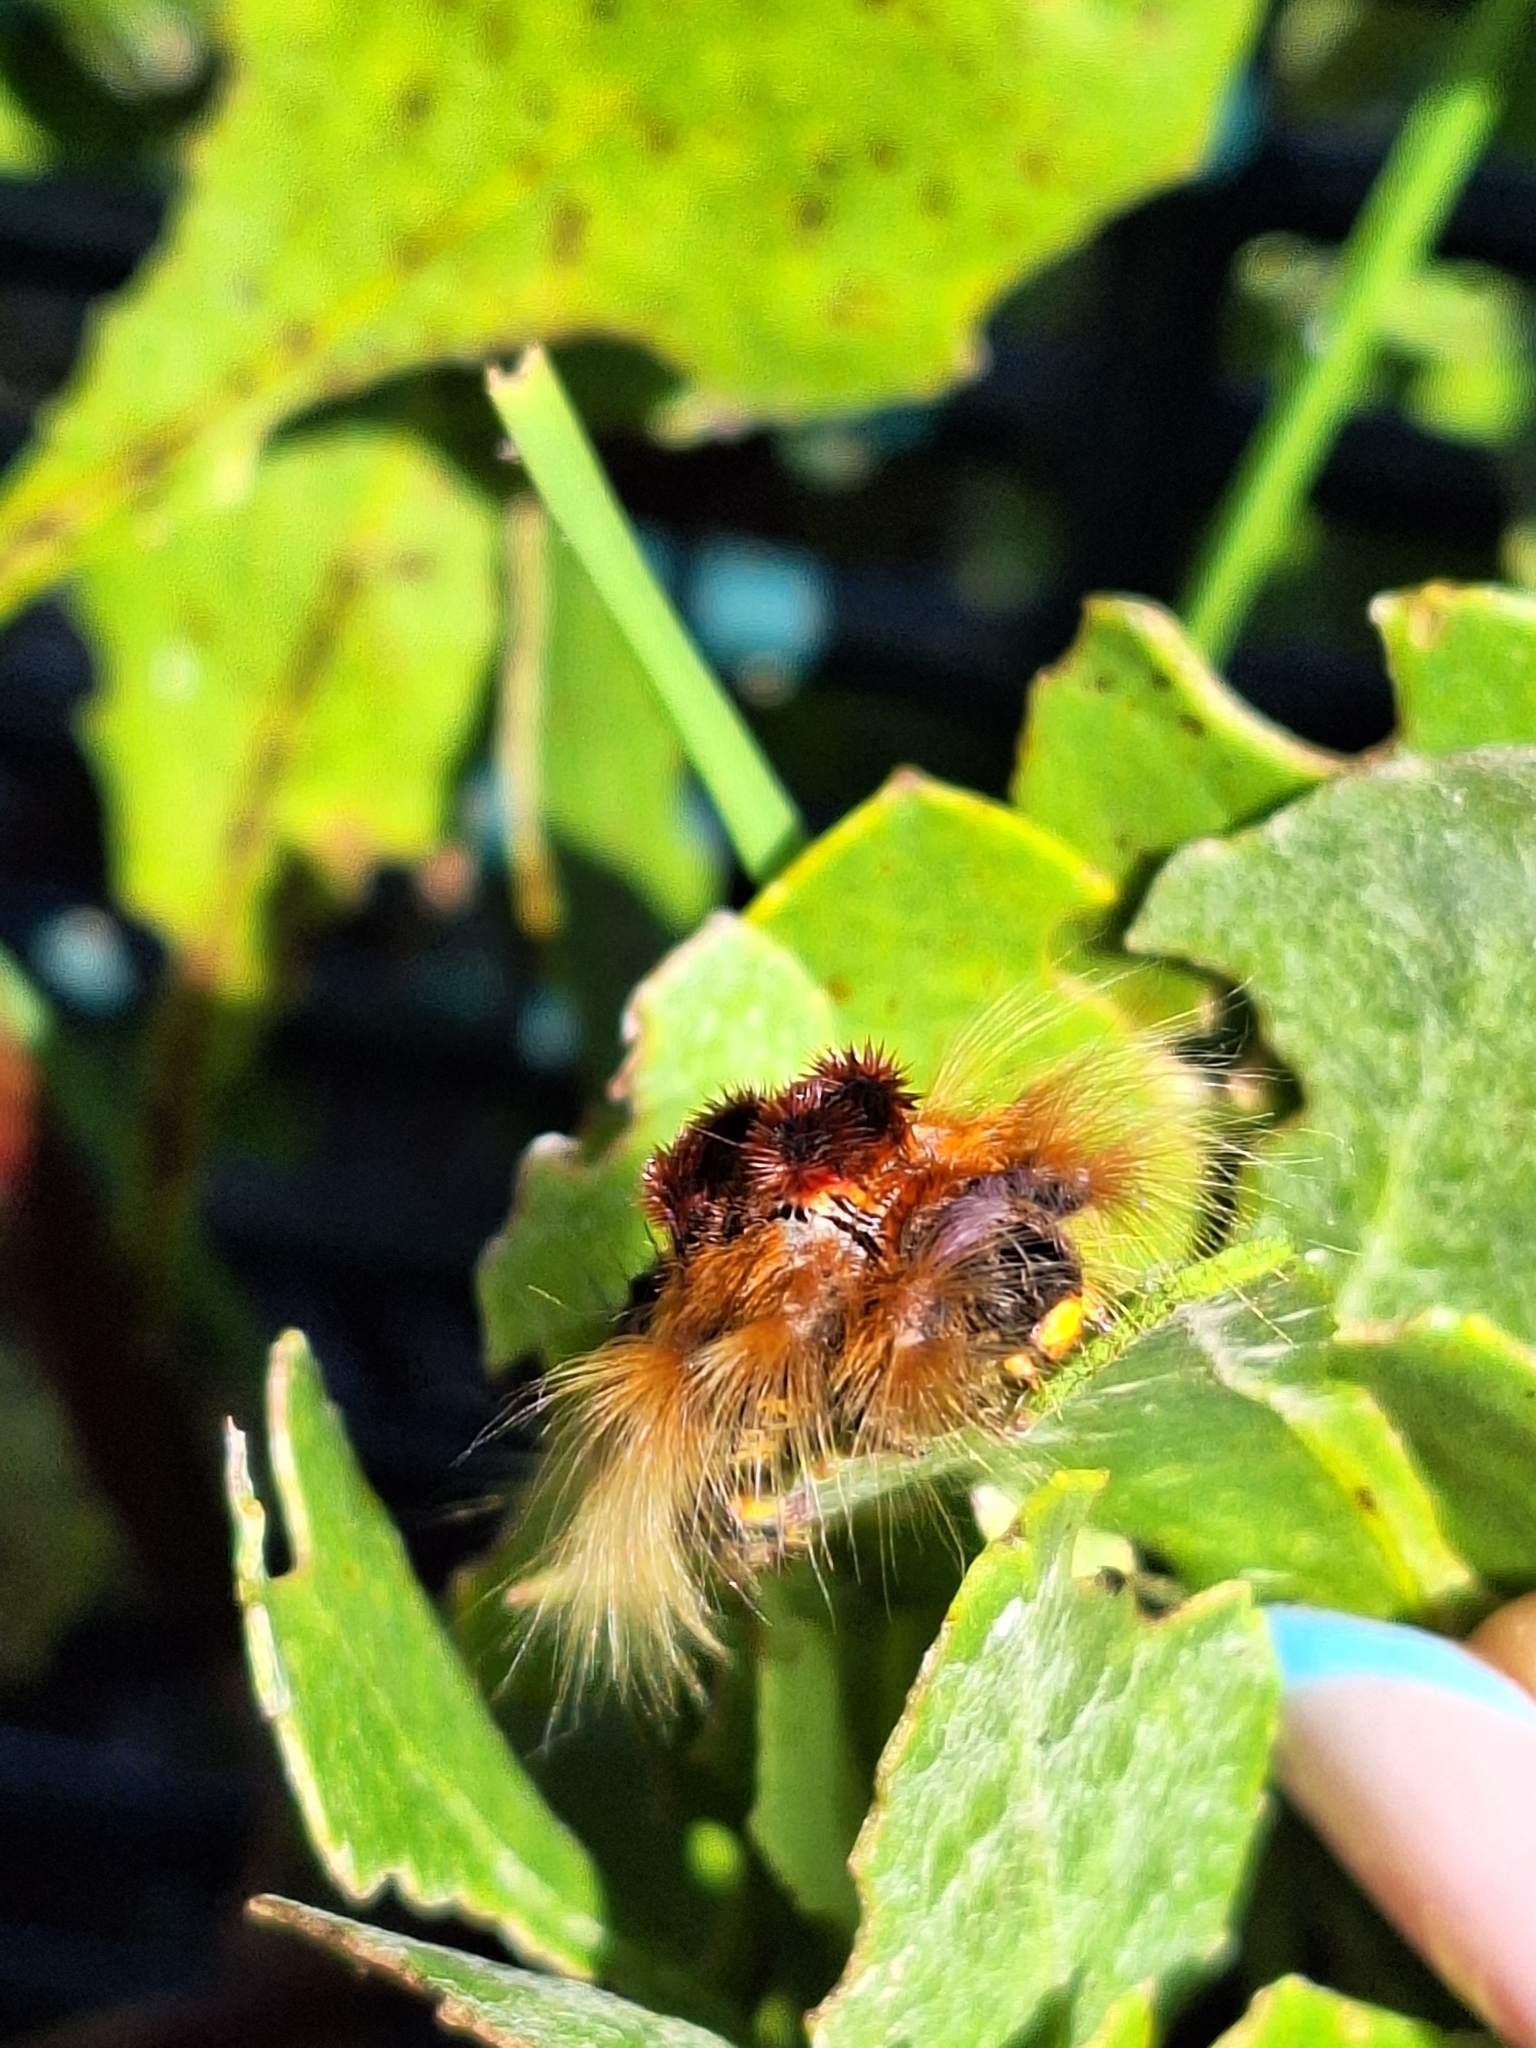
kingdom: Animalia
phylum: Arthropoda
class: Insecta
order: Lepidoptera
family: Lasiocampidae
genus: Eutricha
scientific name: Eutricha capensis
